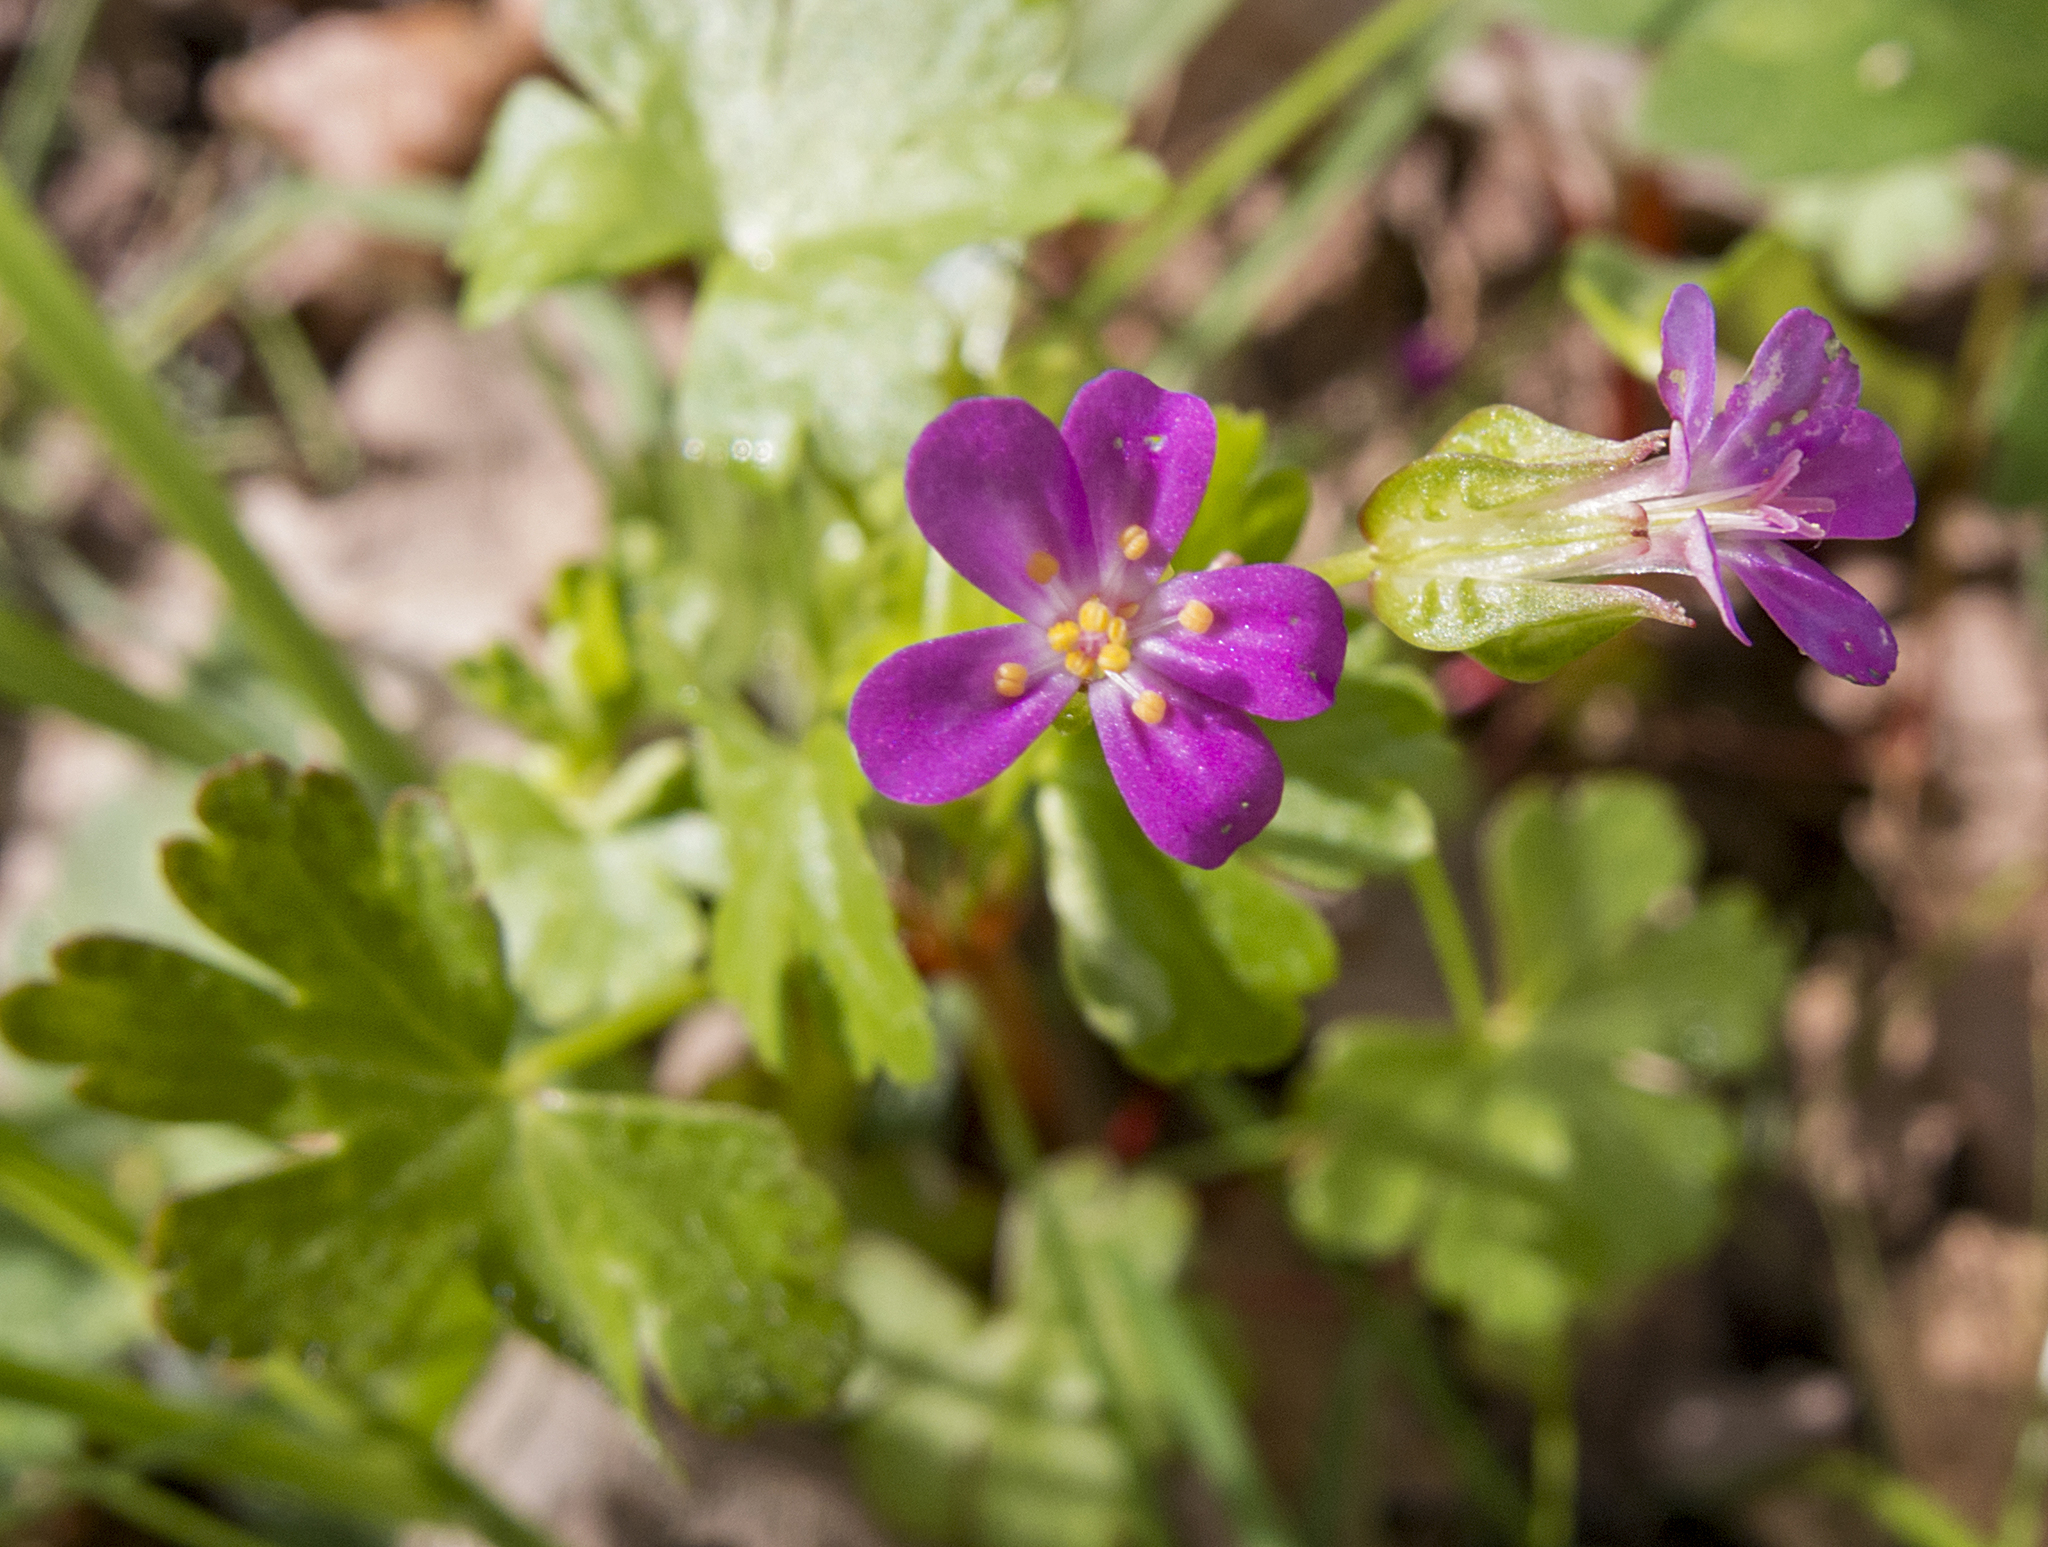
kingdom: Plantae
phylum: Tracheophyta
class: Magnoliopsida
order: Geraniales
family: Geraniaceae
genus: Geranium
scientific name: Geranium lucidum
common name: Shining crane's-bill
